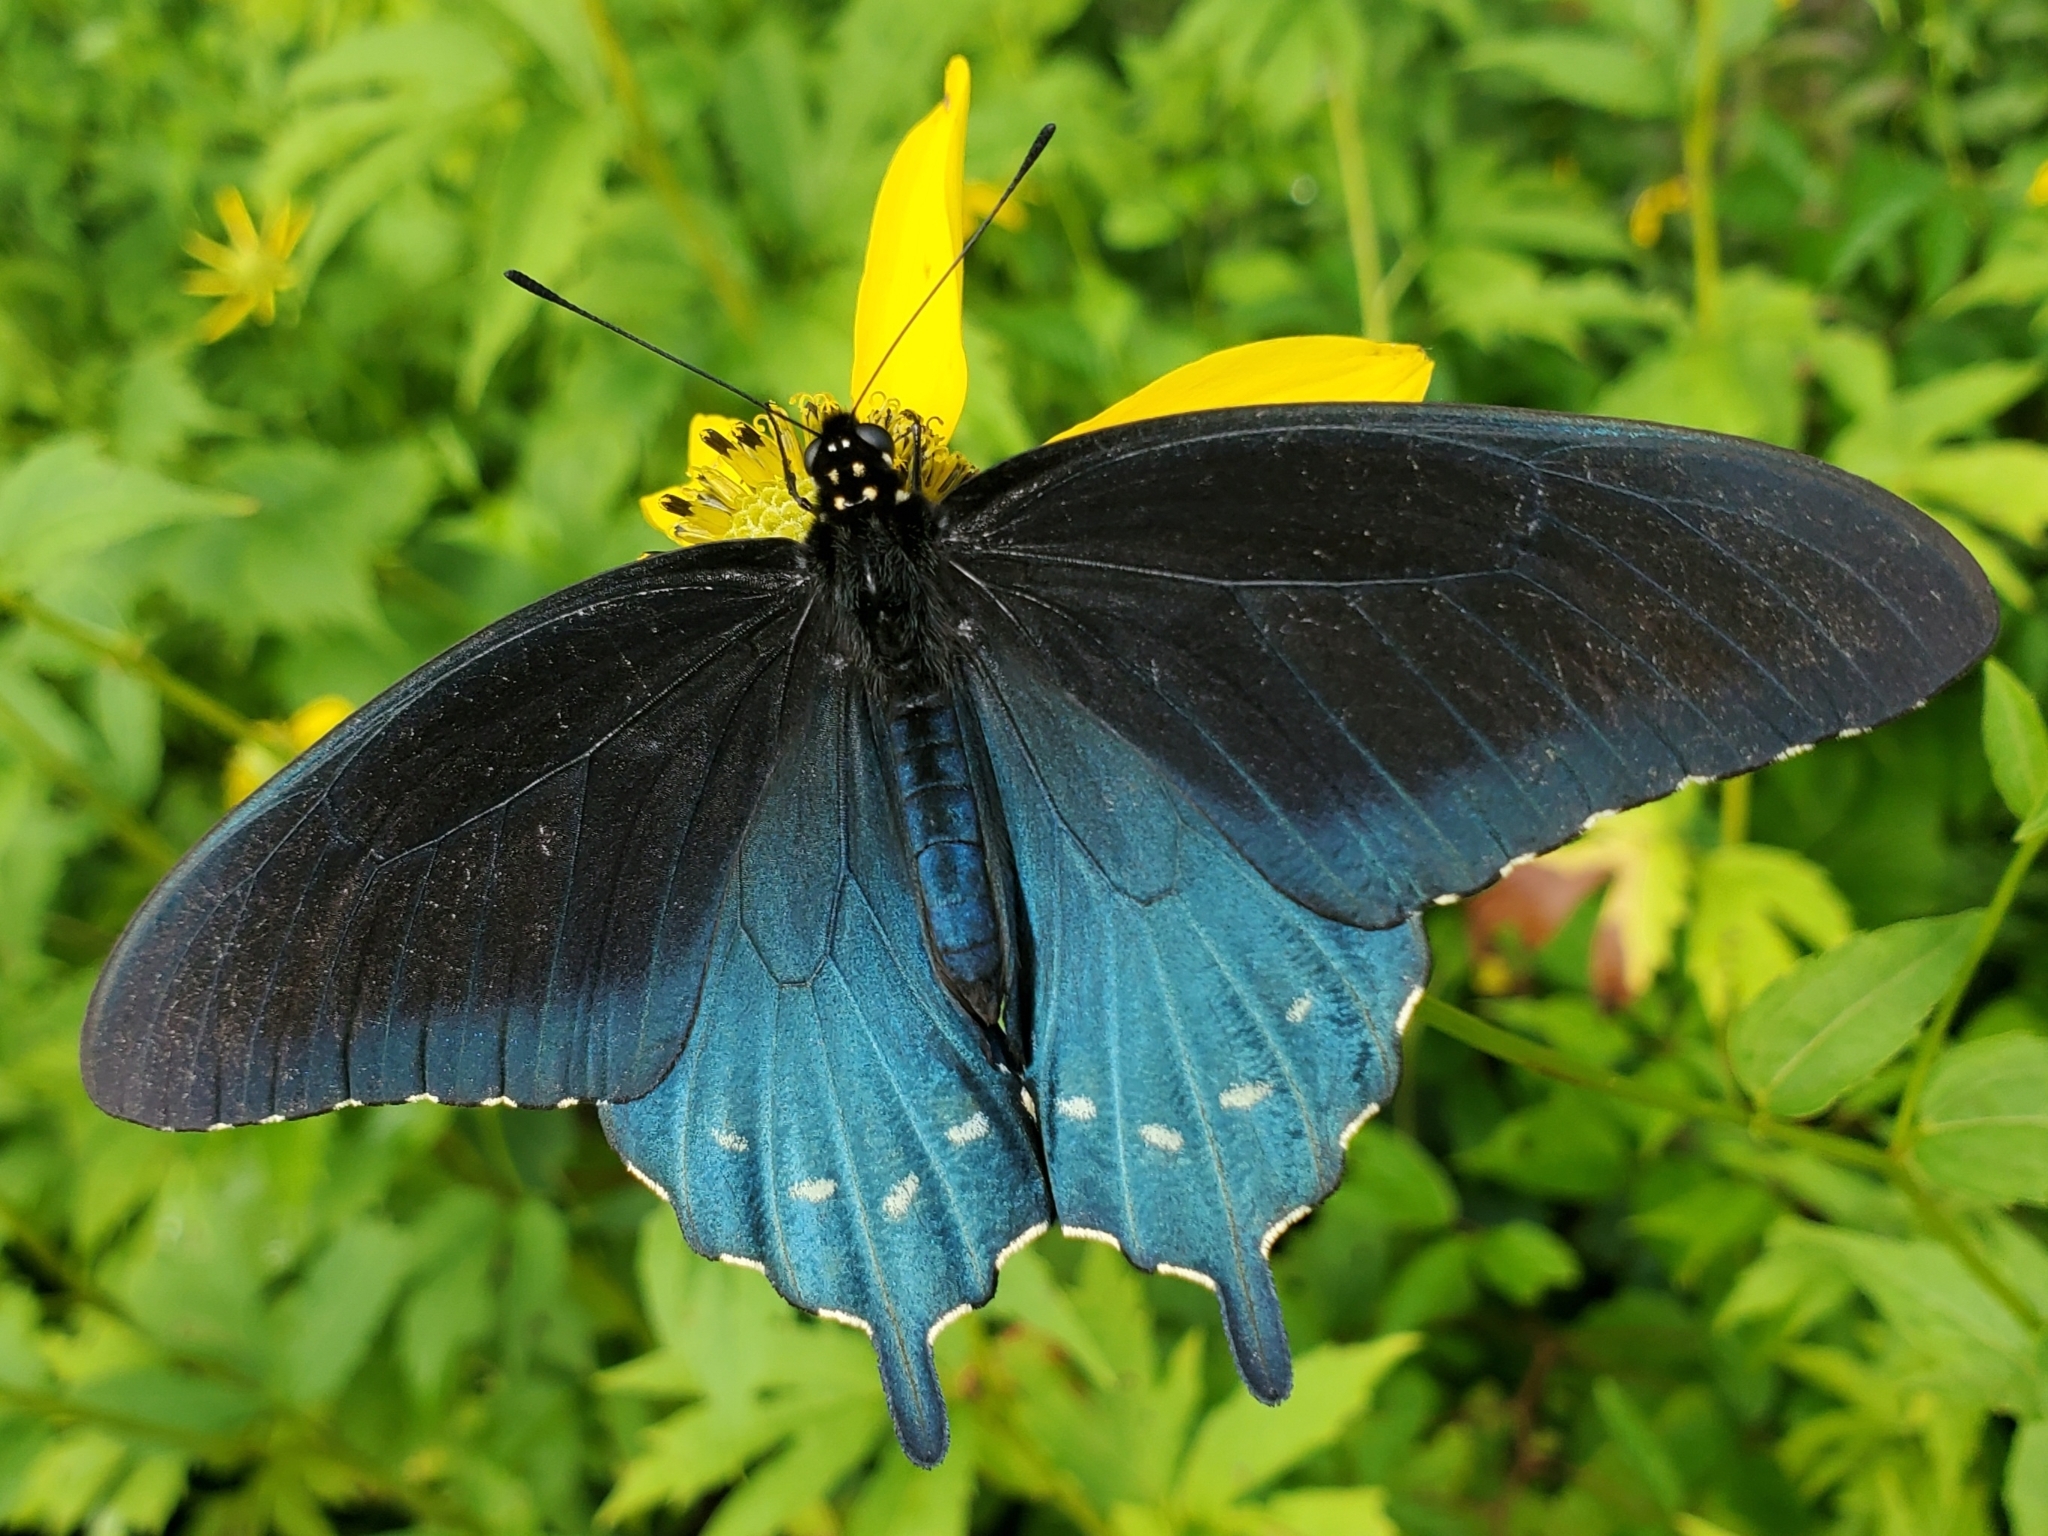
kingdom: Animalia
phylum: Arthropoda
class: Insecta
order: Lepidoptera
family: Papilionidae
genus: Battus
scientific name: Battus philenor
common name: Pipevine swallowtail
